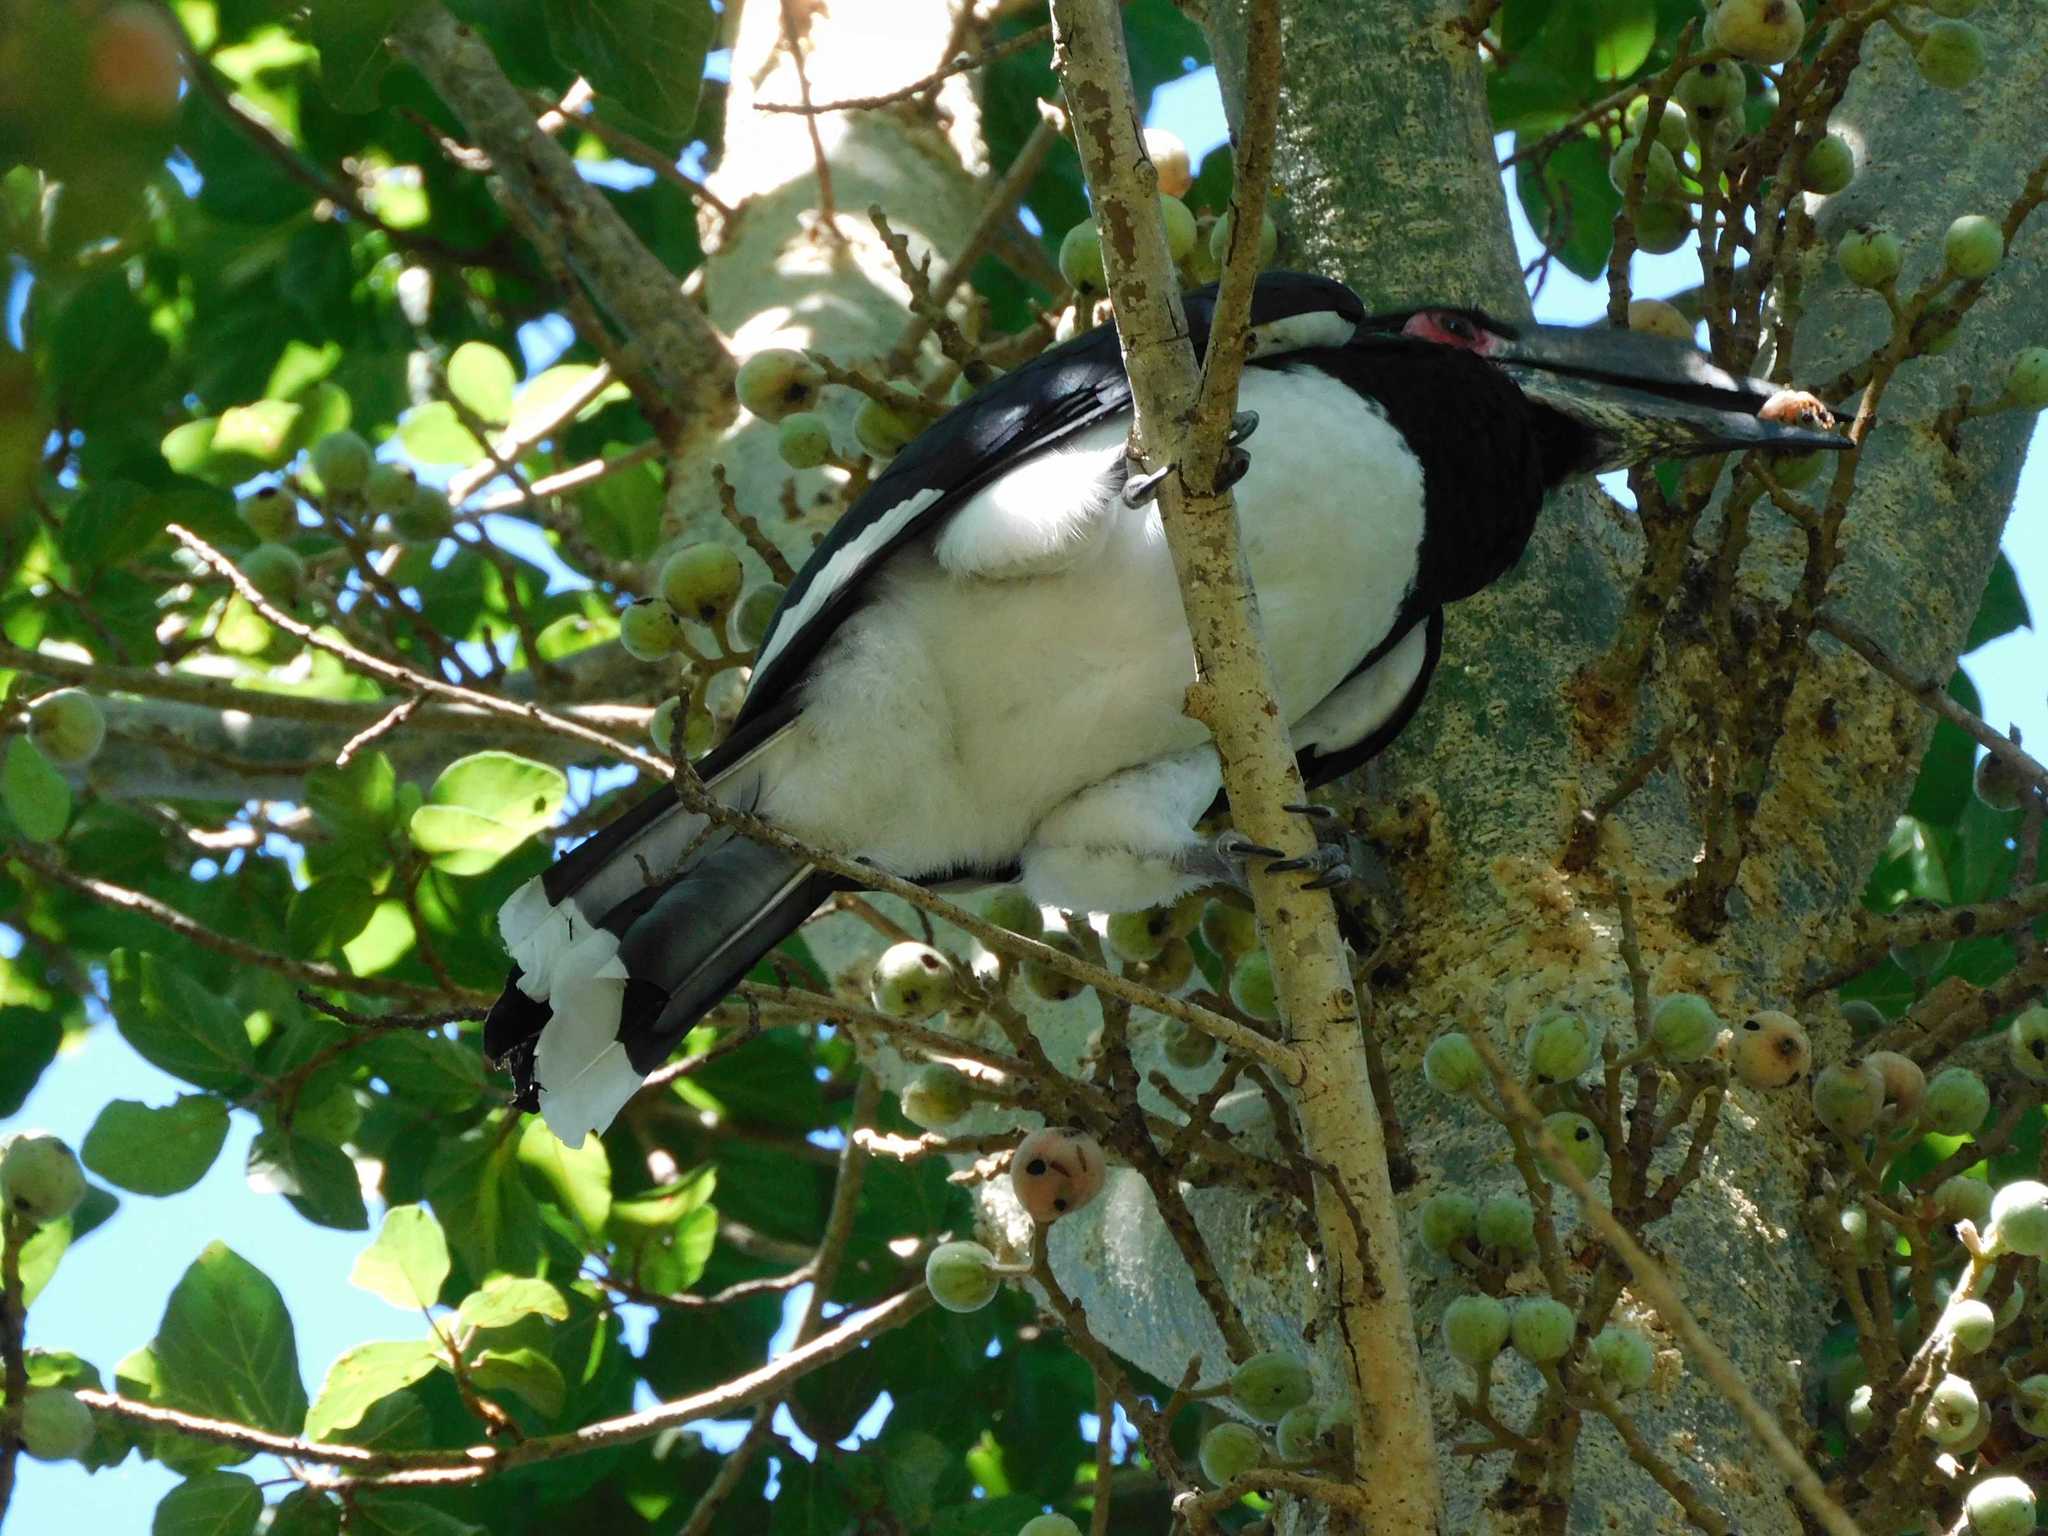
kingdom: Animalia
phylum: Chordata
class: Aves
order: Bucerotiformes
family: Bucerotidae
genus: Bycanistes
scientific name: Bycanistes bucinator
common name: Trumpeter hornbill
